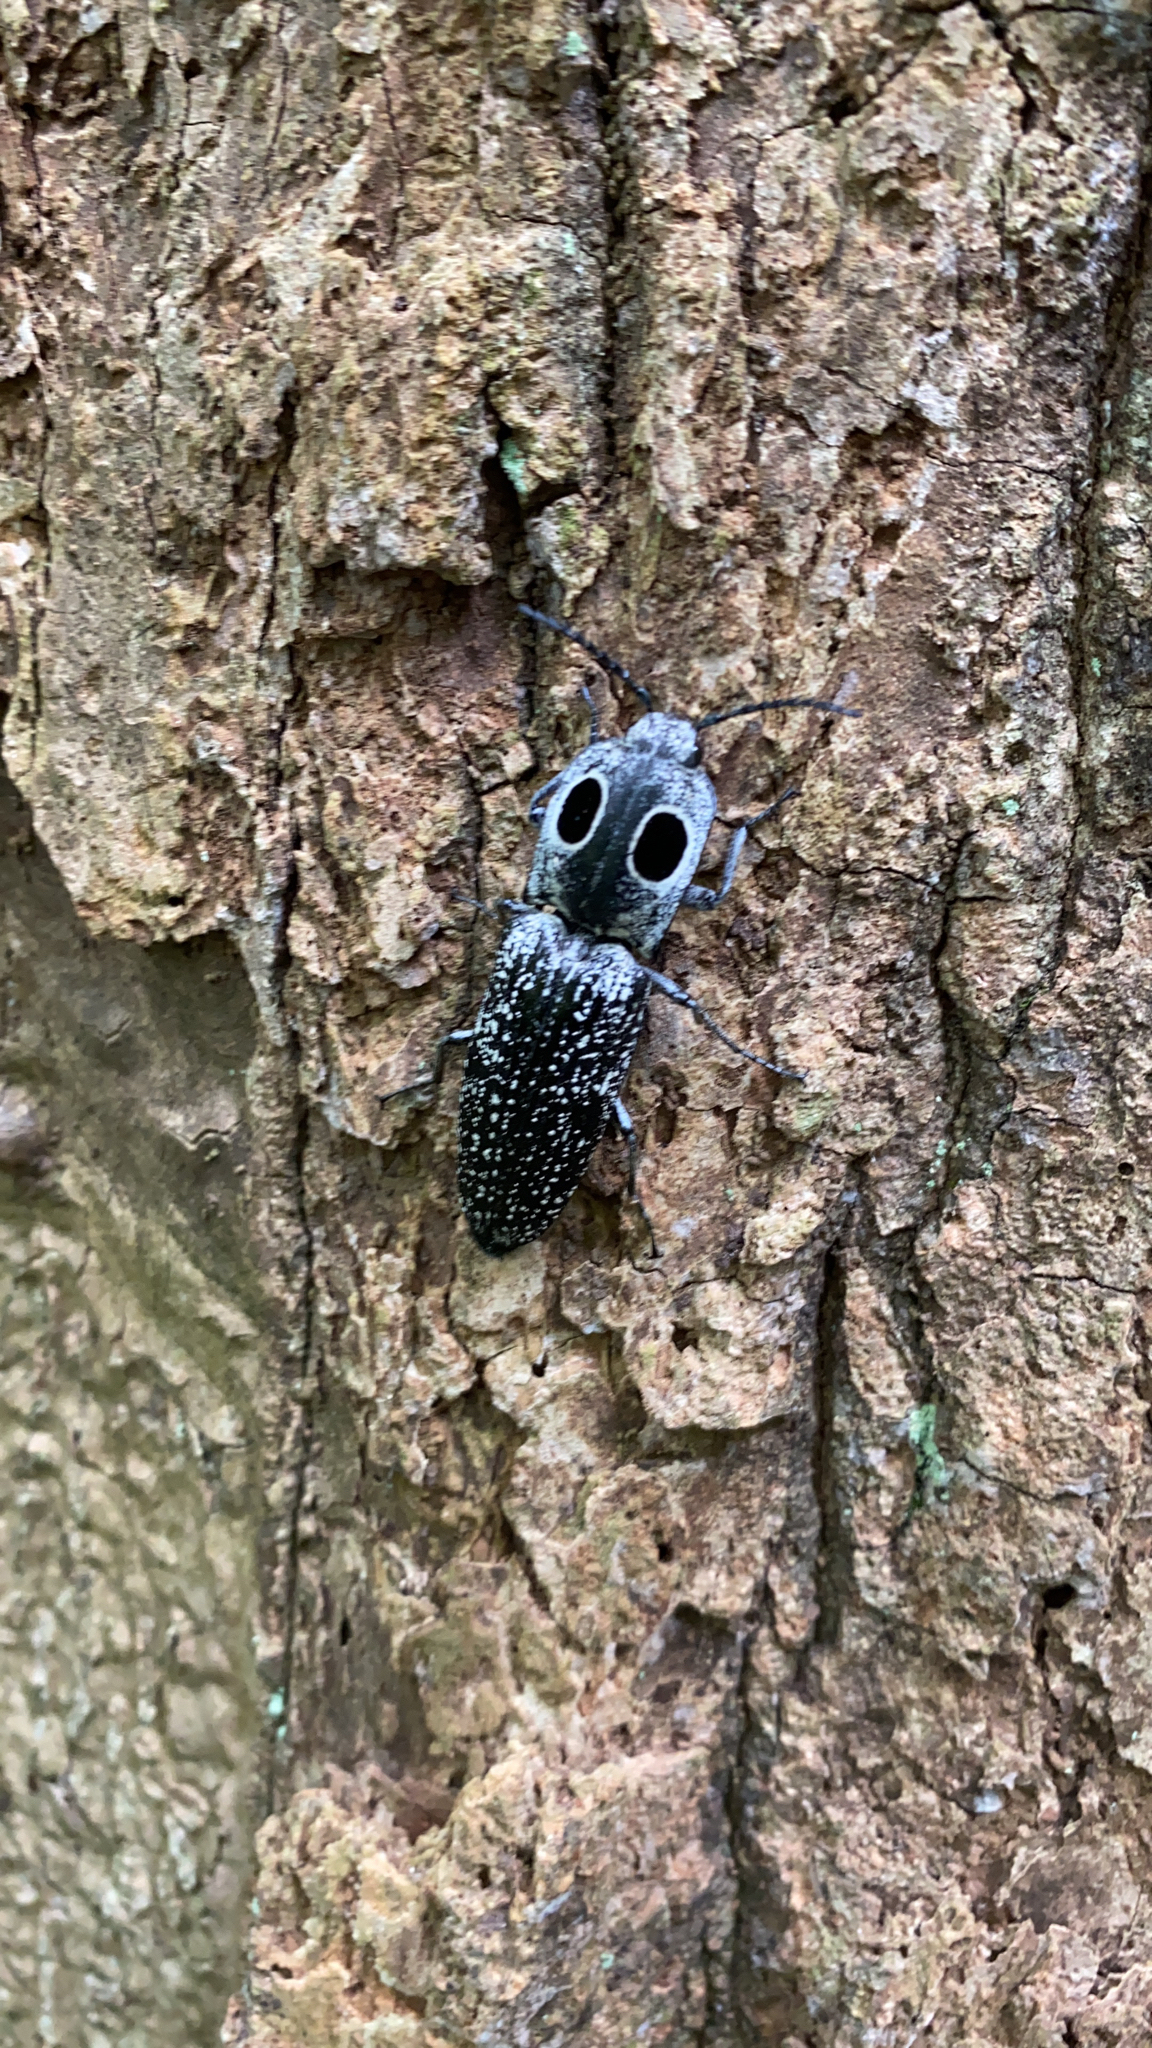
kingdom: Animalia
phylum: Arthropoda
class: Insecta
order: Coleoptera
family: Elateridae
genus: Alaus
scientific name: Alaus oculatus
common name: Eastern eyed click beetle
